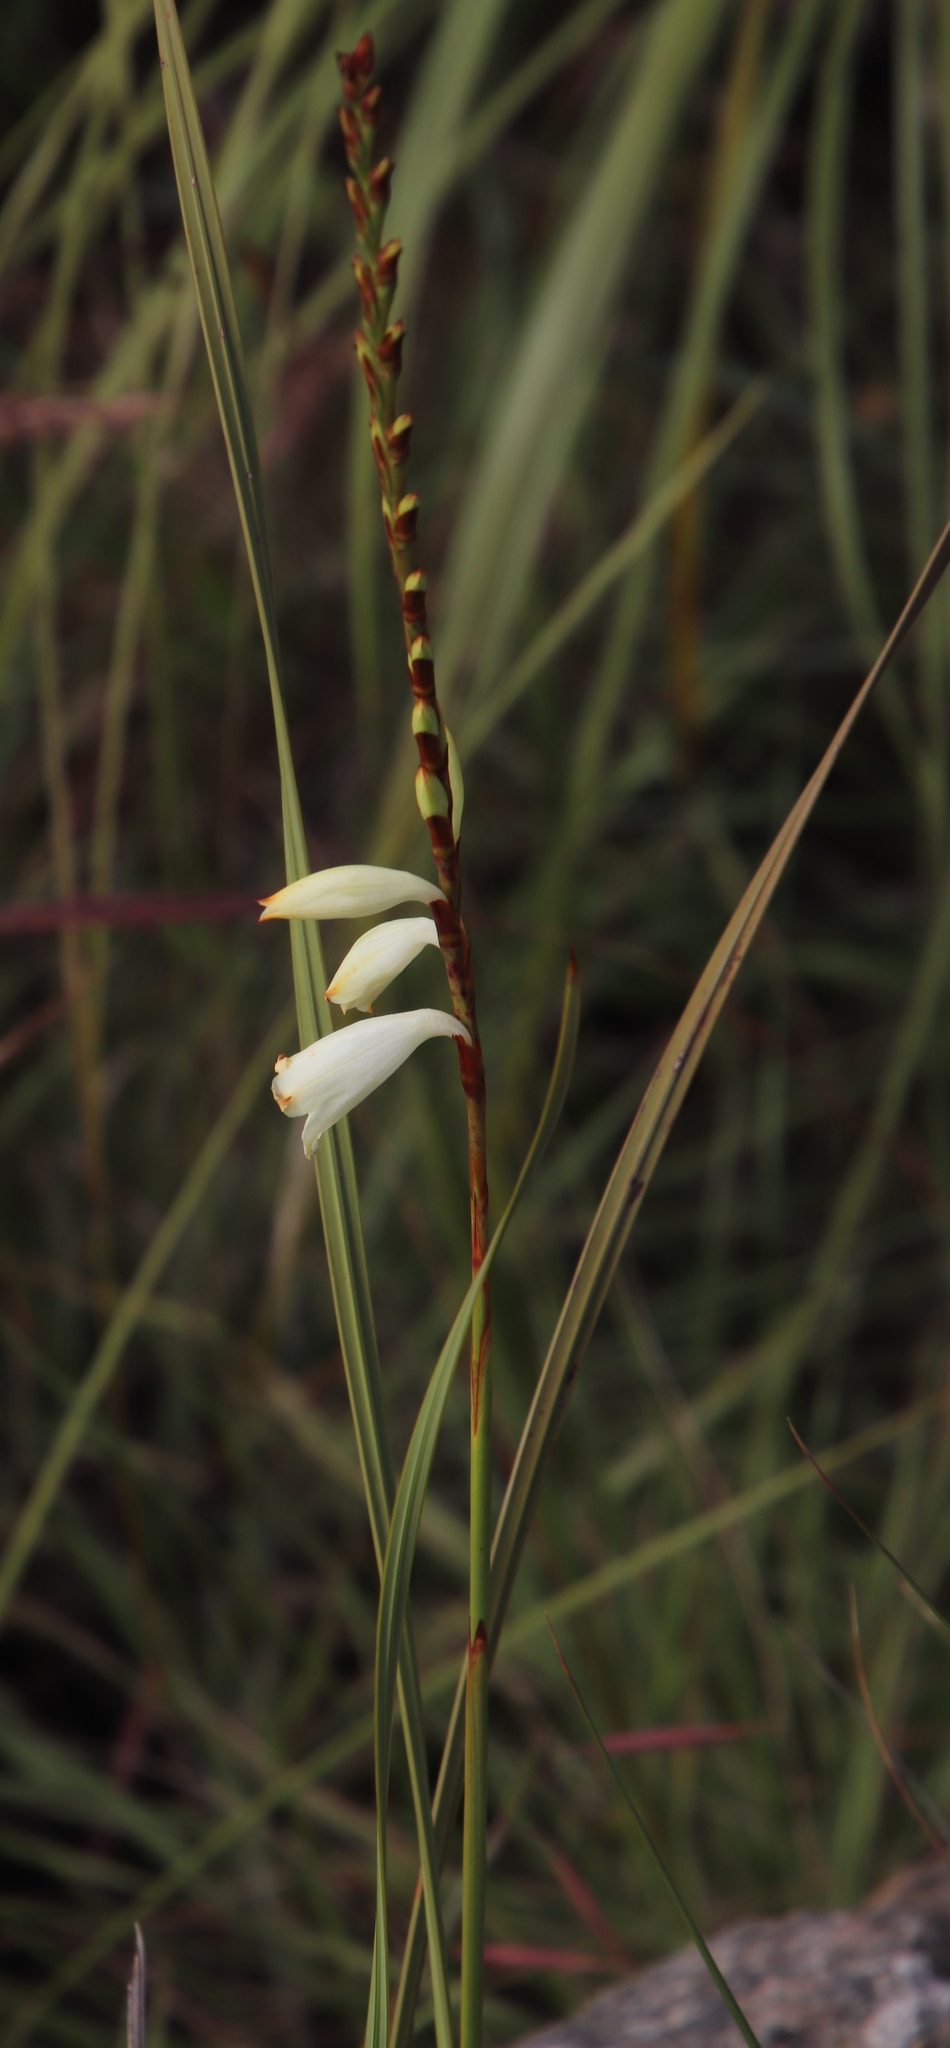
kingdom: Plantae
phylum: Tracheophyta
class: Liliopsida
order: Asparagales
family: Iridaceae
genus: Watsonia
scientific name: Watsonia watsonioides
